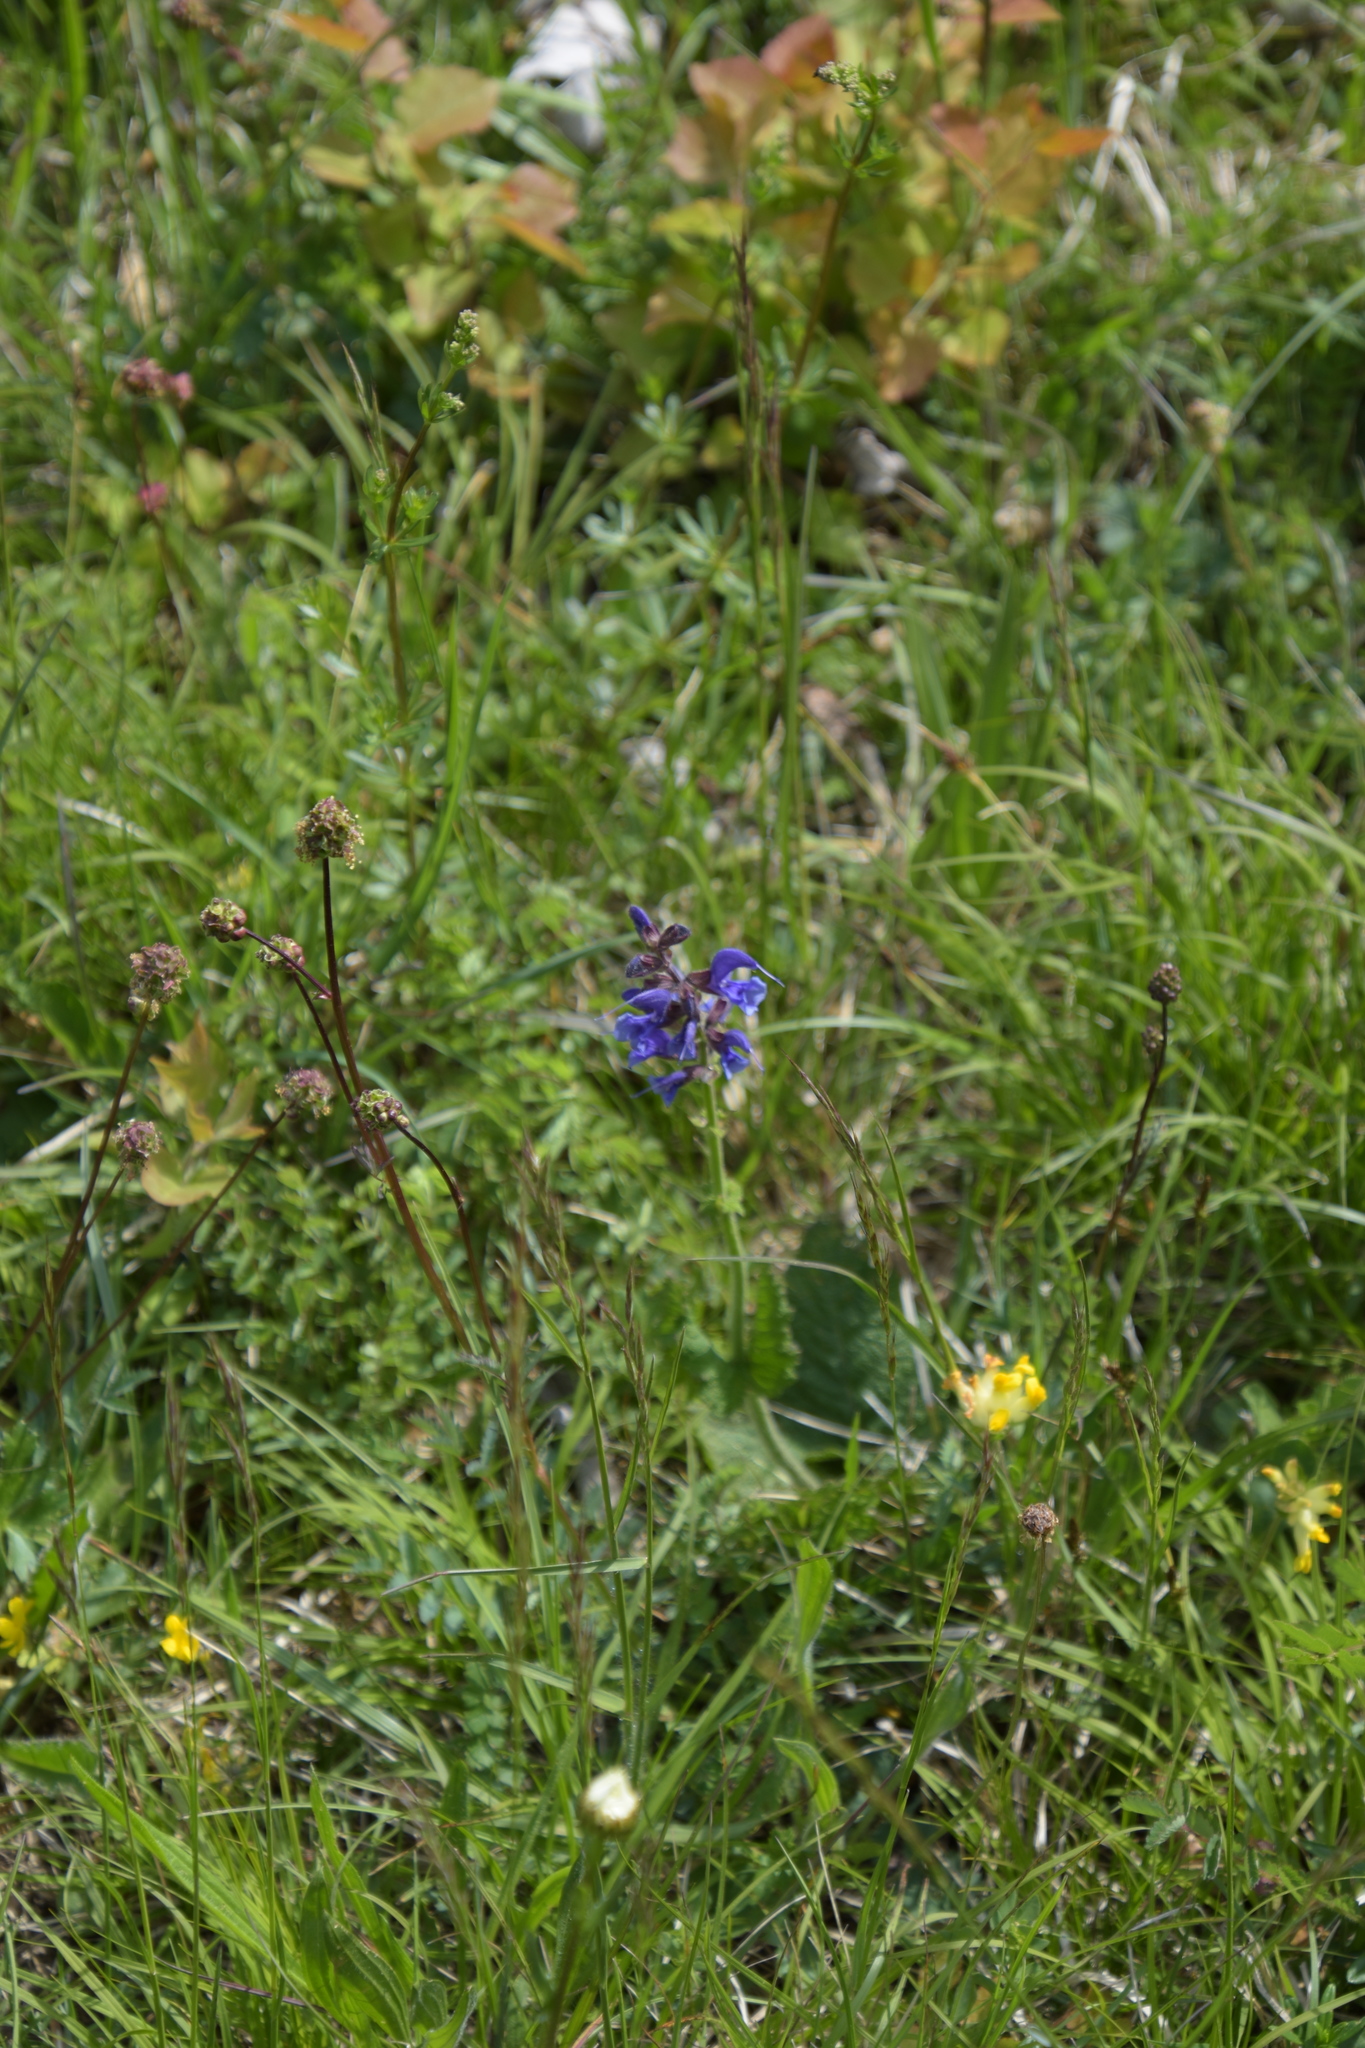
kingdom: Plantae
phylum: Tracheophyta
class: Magnoliopsida
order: Lamiales
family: Lamiaceae
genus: Salvia
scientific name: Salvia pratensis
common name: Meadow sage
